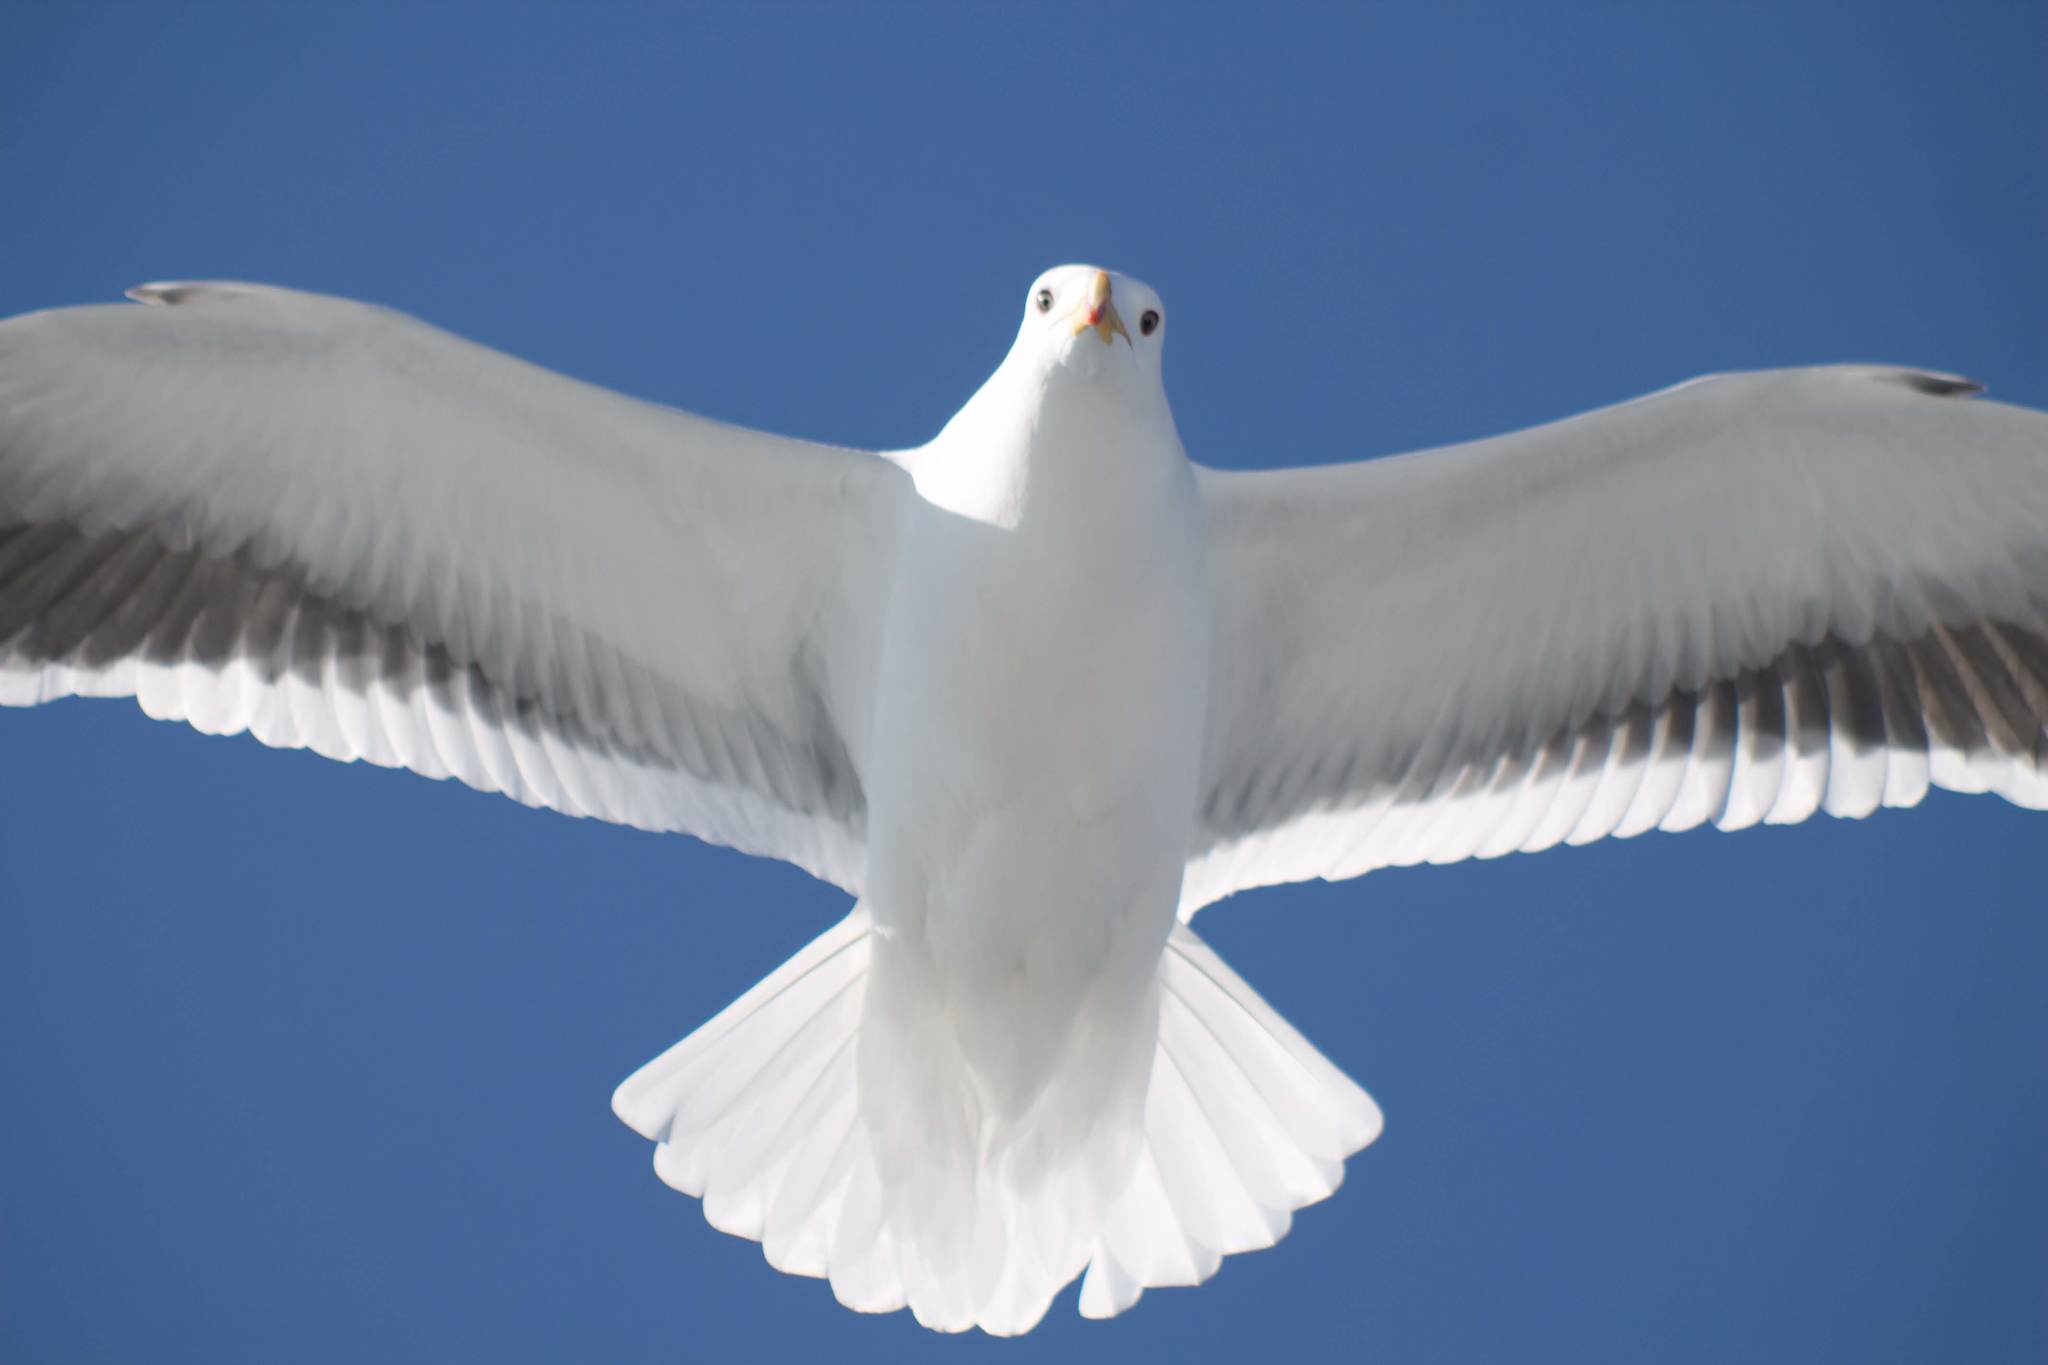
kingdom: Animalia
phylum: Chordata
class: Aves
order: Charadriiformes
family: Laridae
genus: Larus
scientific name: Larus dominicanus
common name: Kelp gull
